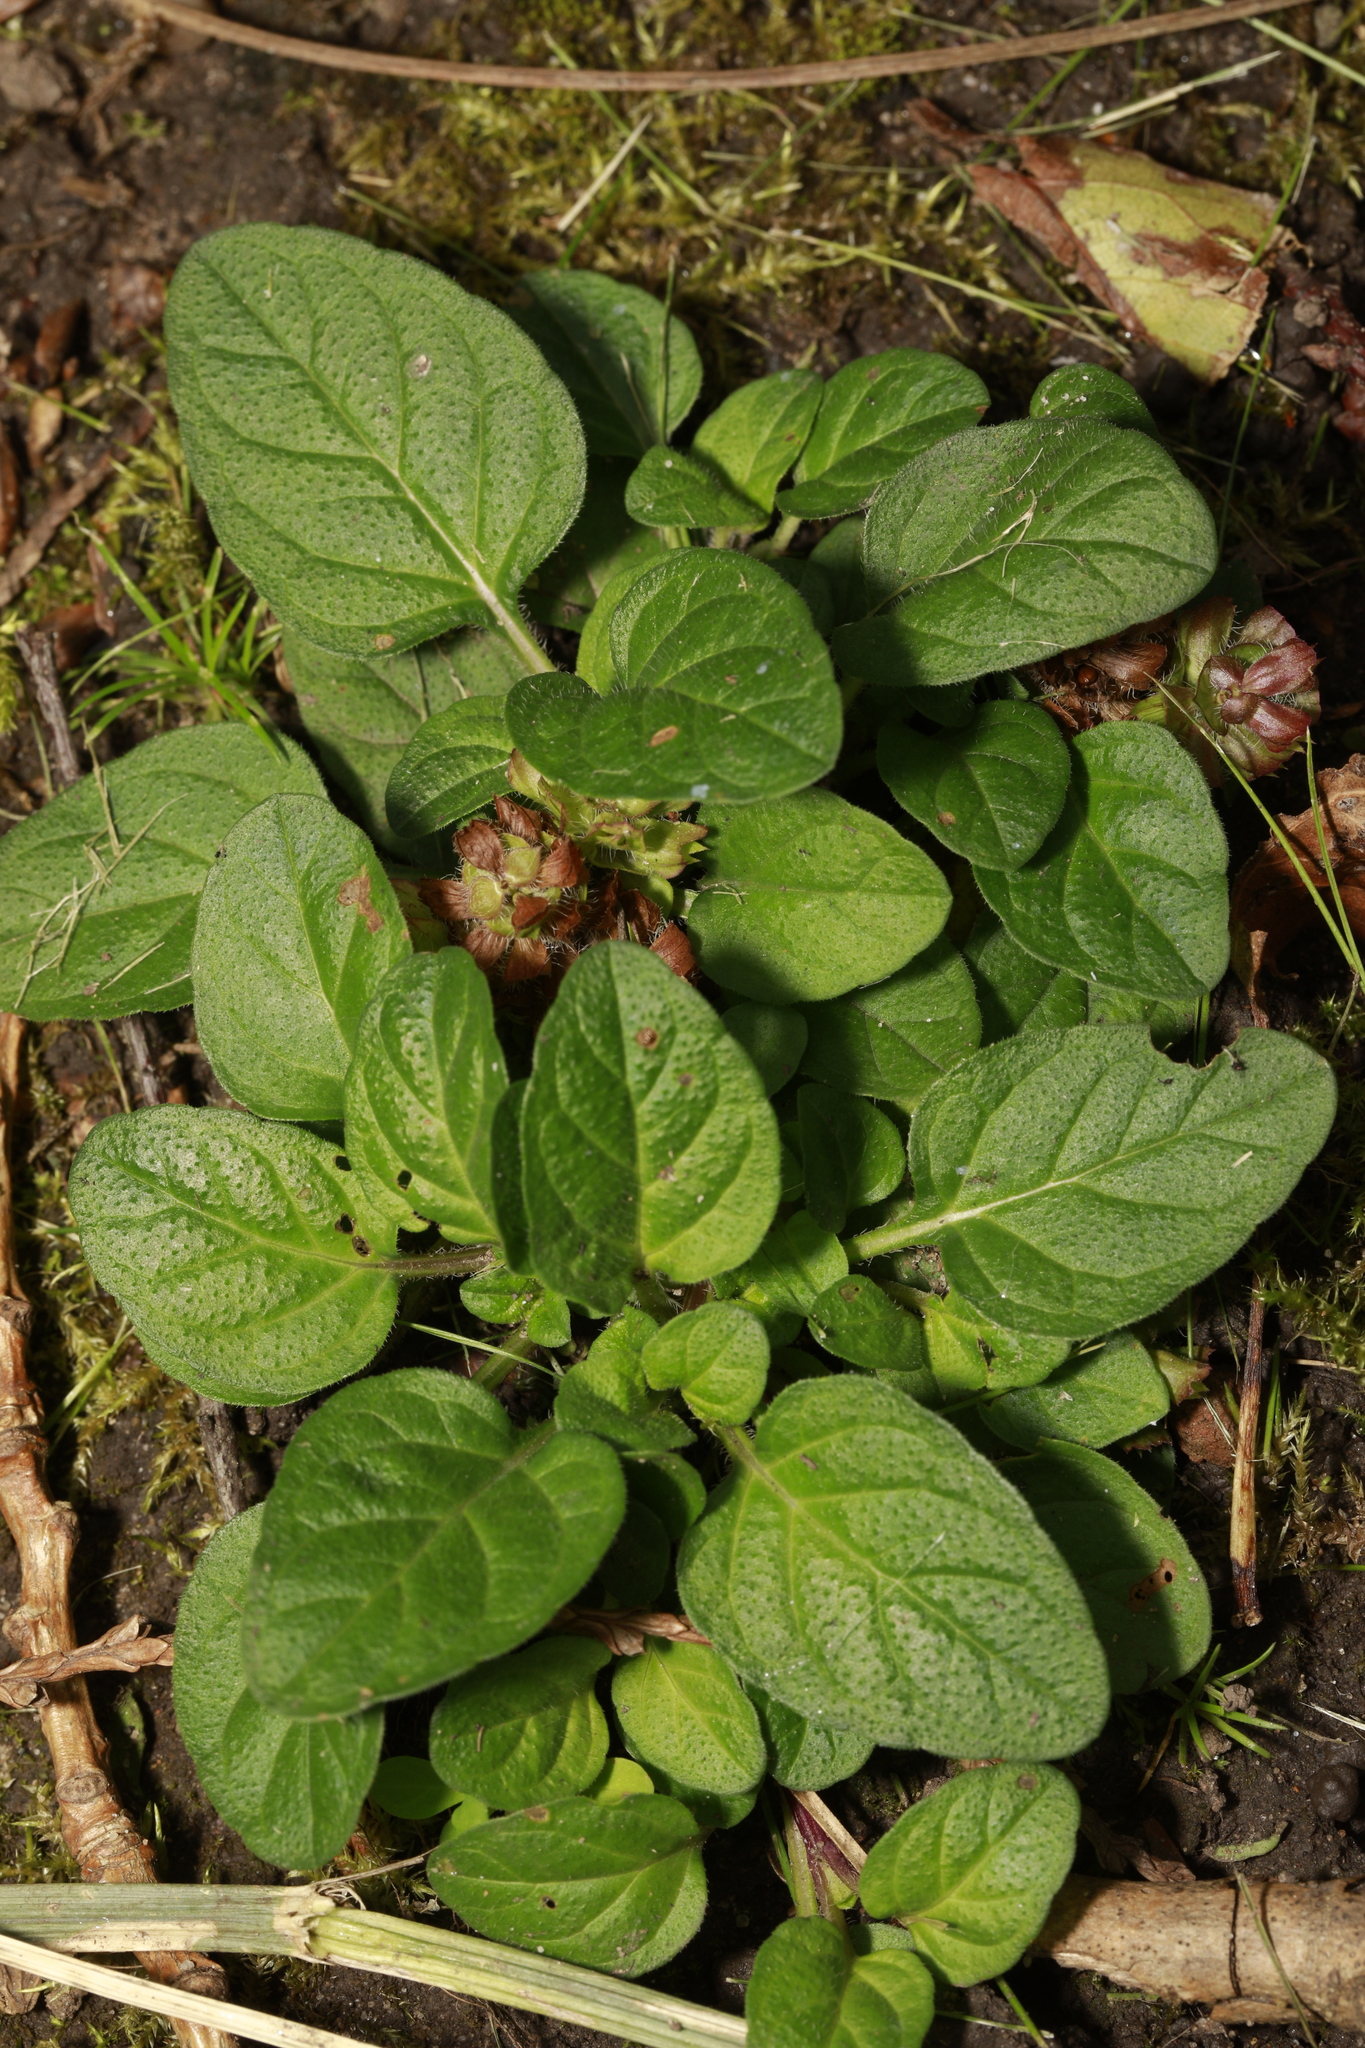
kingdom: Plantae
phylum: Tracheophyta
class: Magnoliopsida
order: Lamiales
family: Lamiaceae
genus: Prunella
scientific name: Prunella vulgaris
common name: Heal-all
